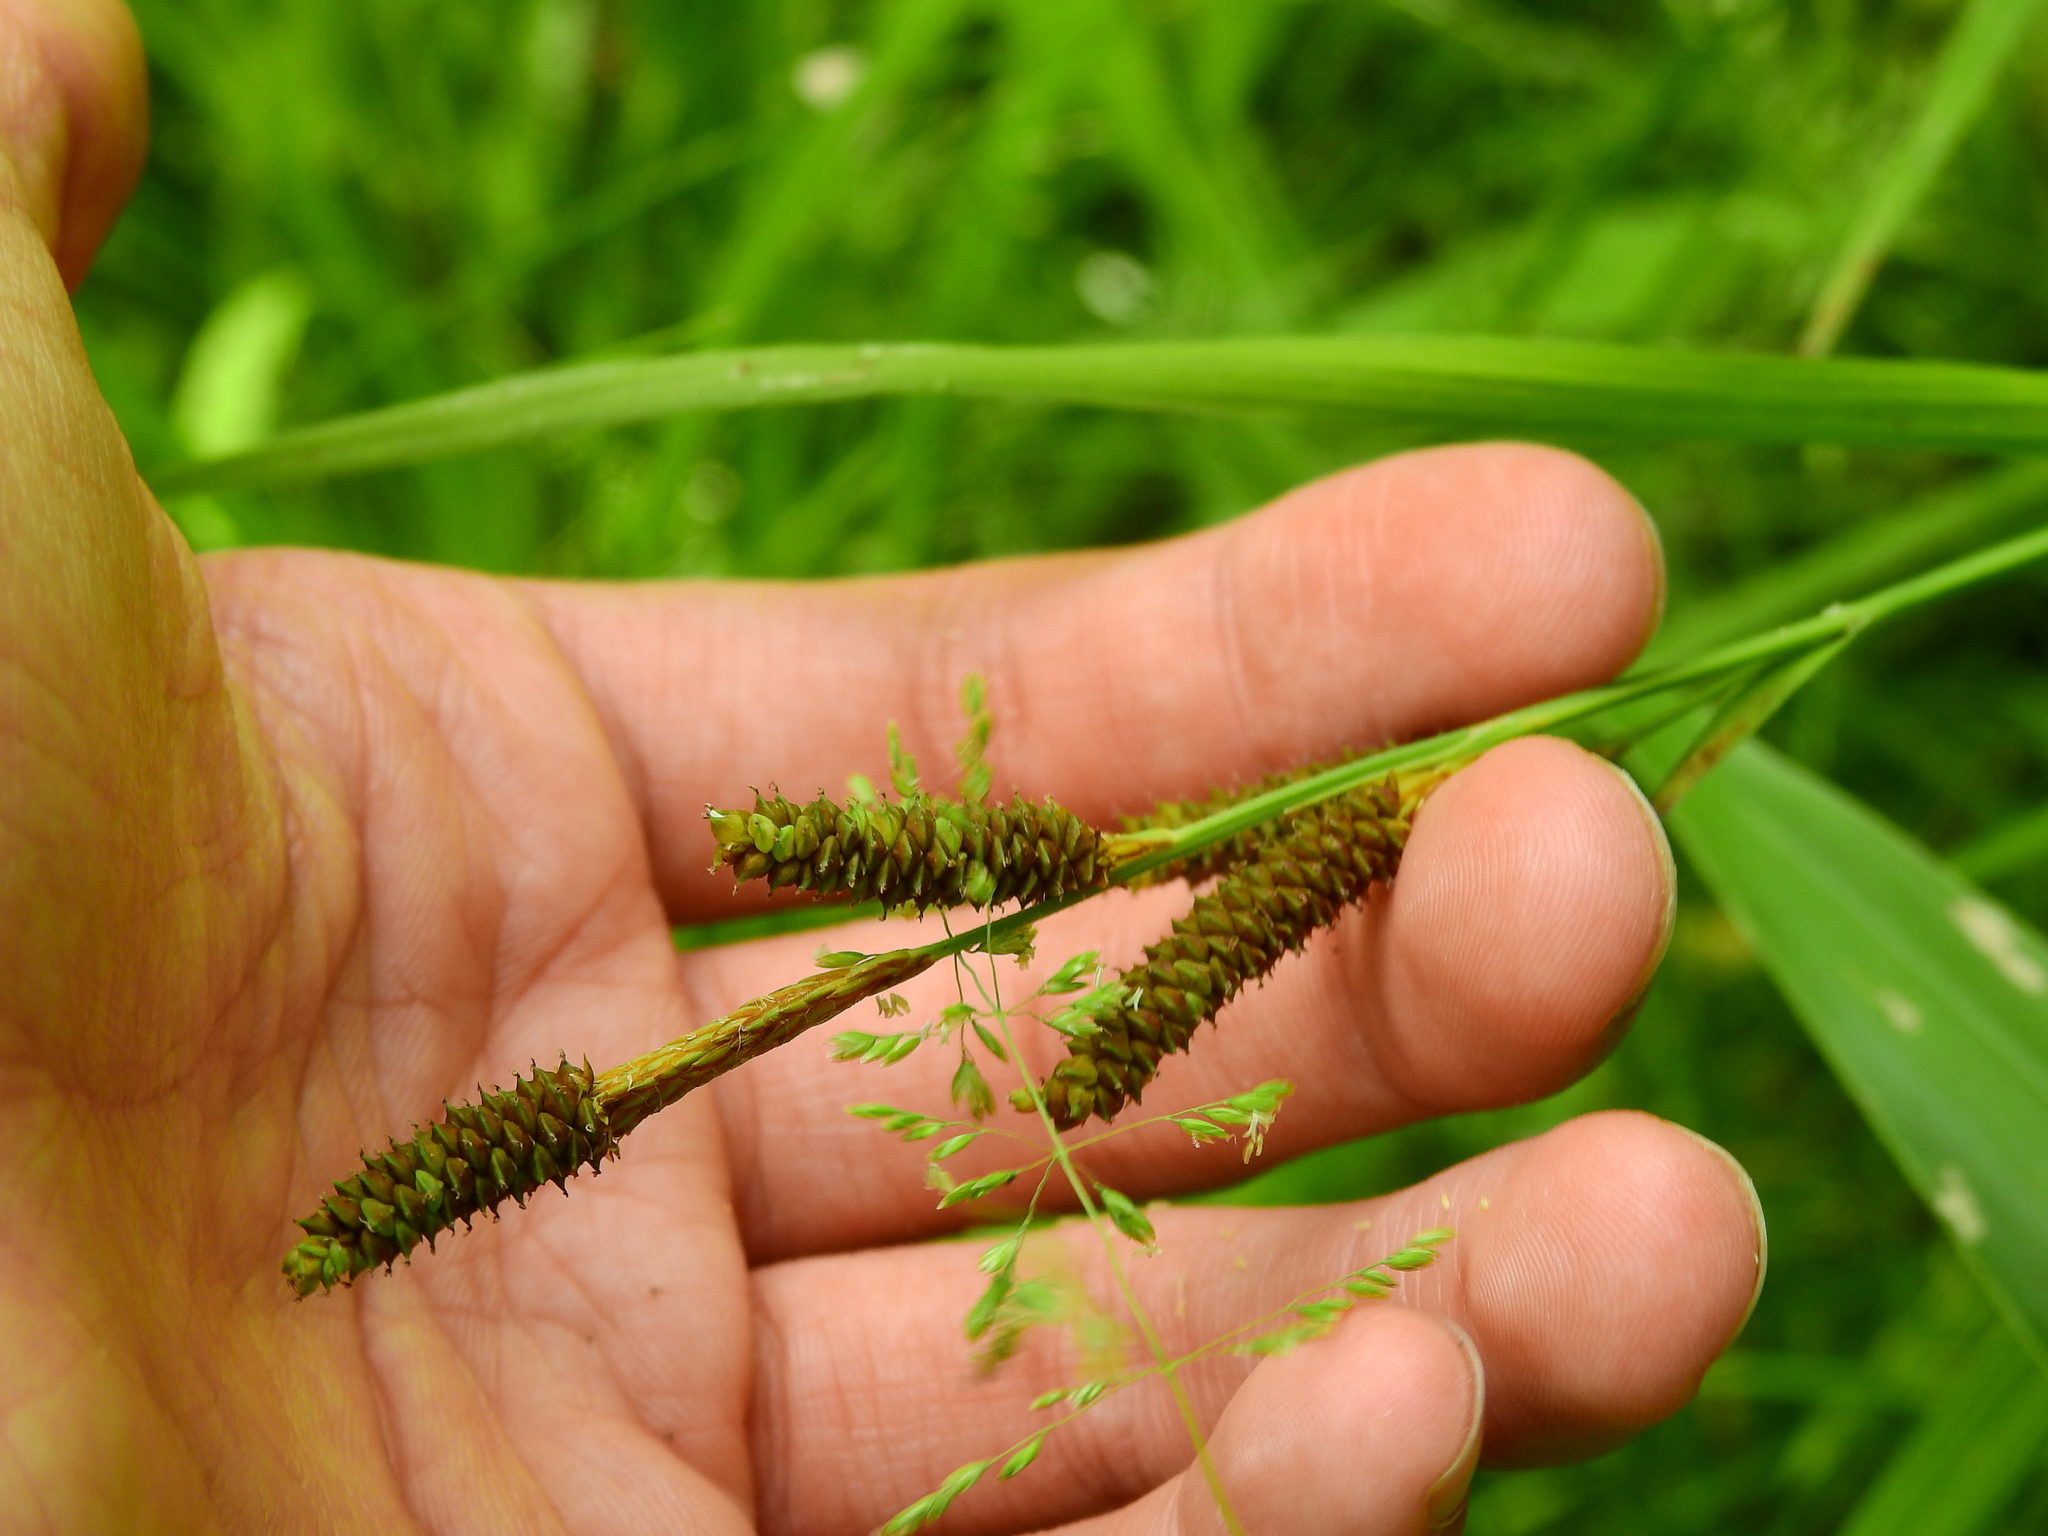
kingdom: Plantae
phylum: Tracheophyta
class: Liliopsida
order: Poales
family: Cyperaceae
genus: Carex
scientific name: Carex shortiana
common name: Short's sedge
